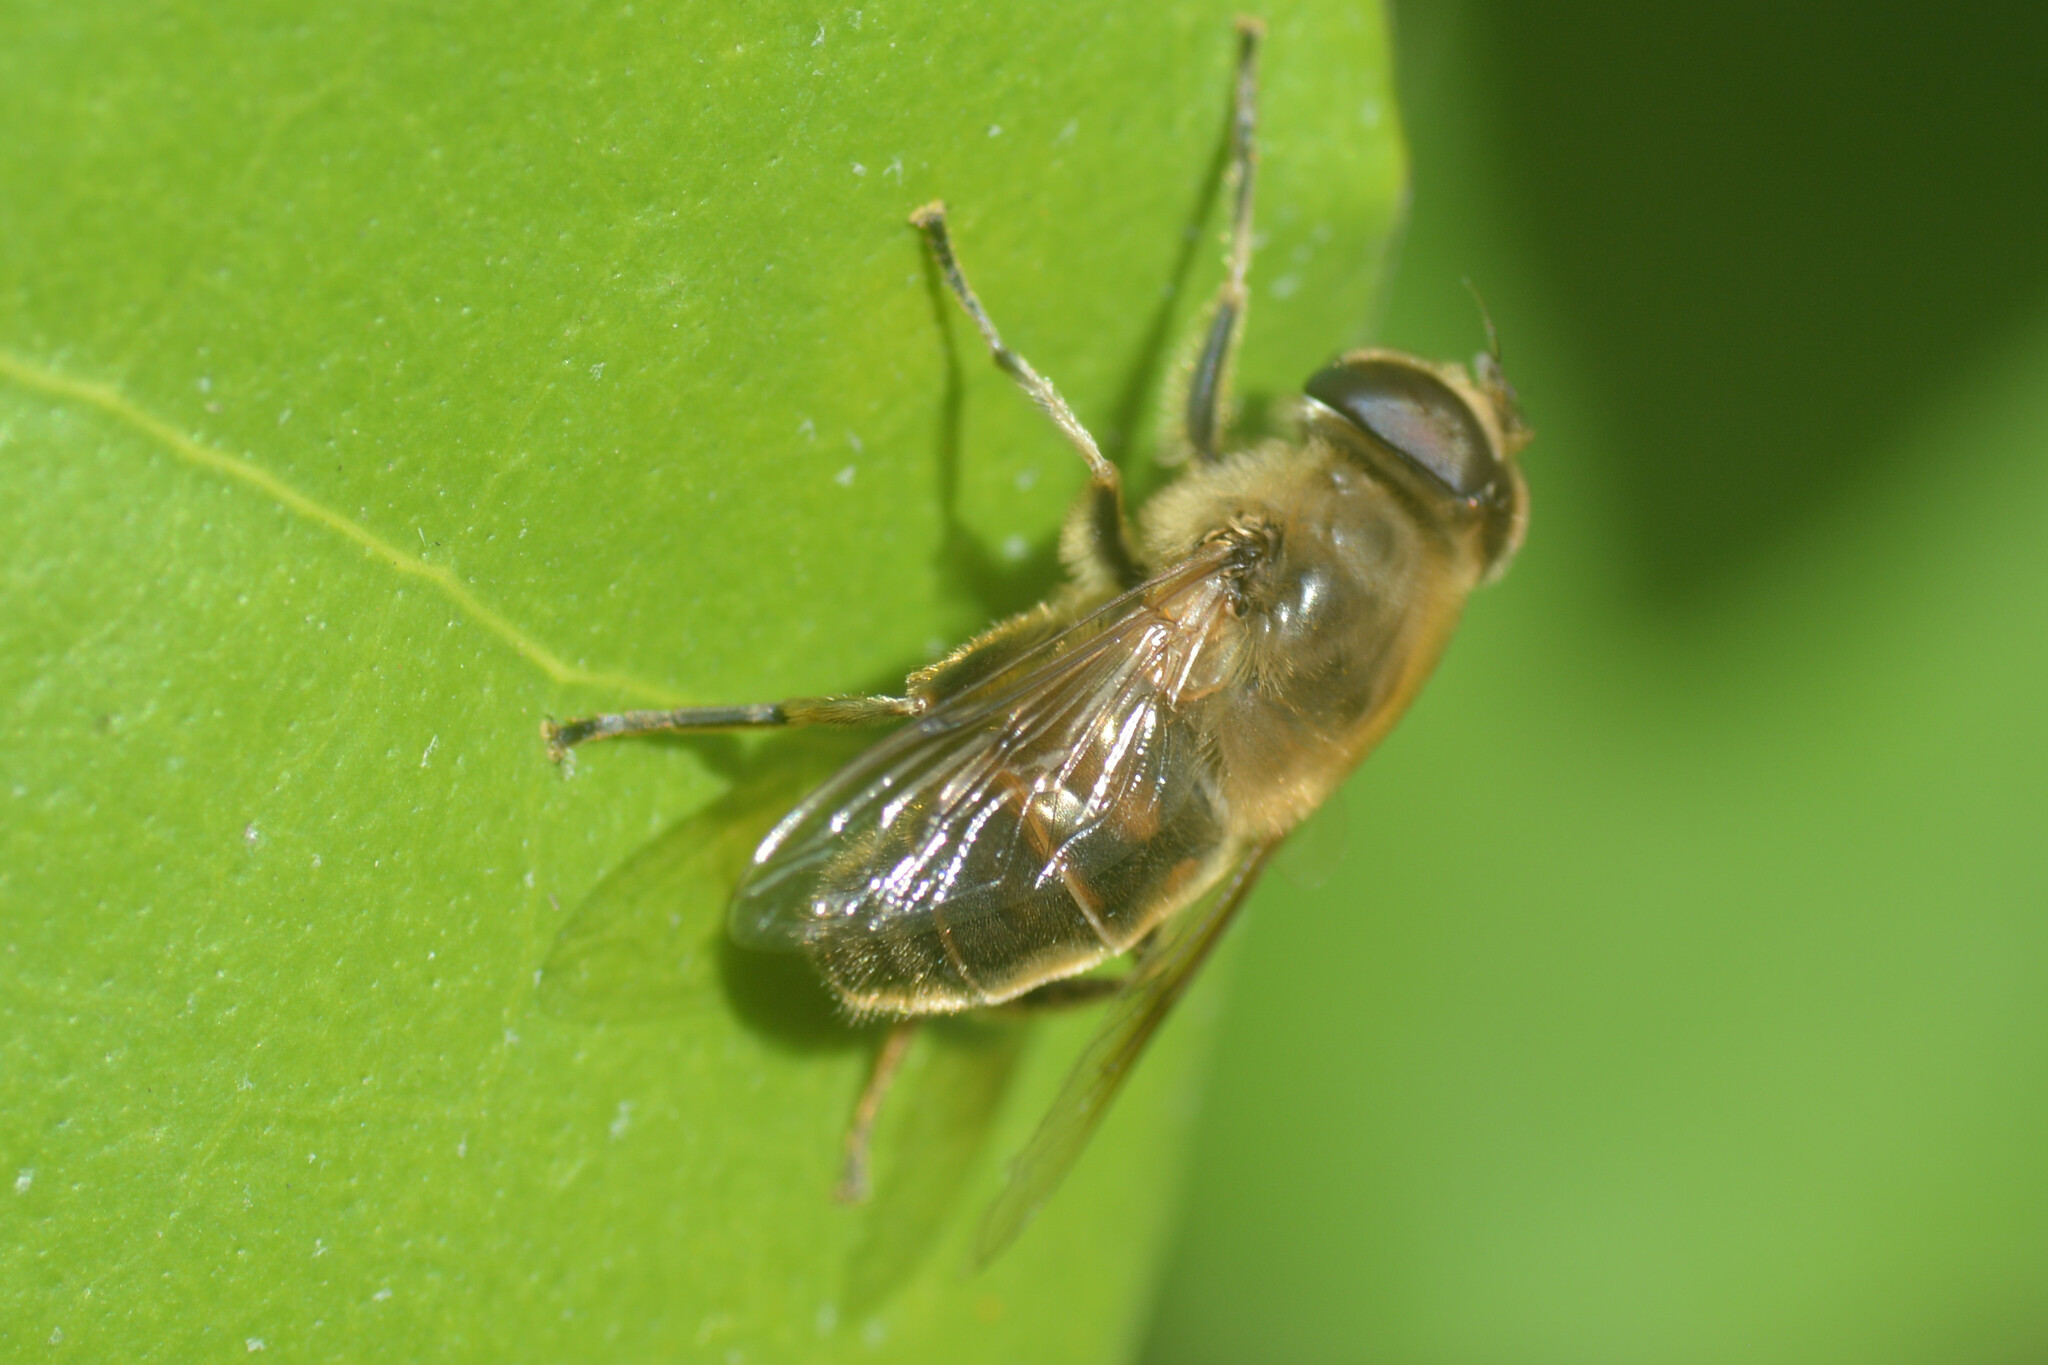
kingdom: Animalia
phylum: Arthropoda
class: Insecta
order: Diptera
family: Syrphidae
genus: Eristalis
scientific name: Eristalis tenax
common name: Drone fly
